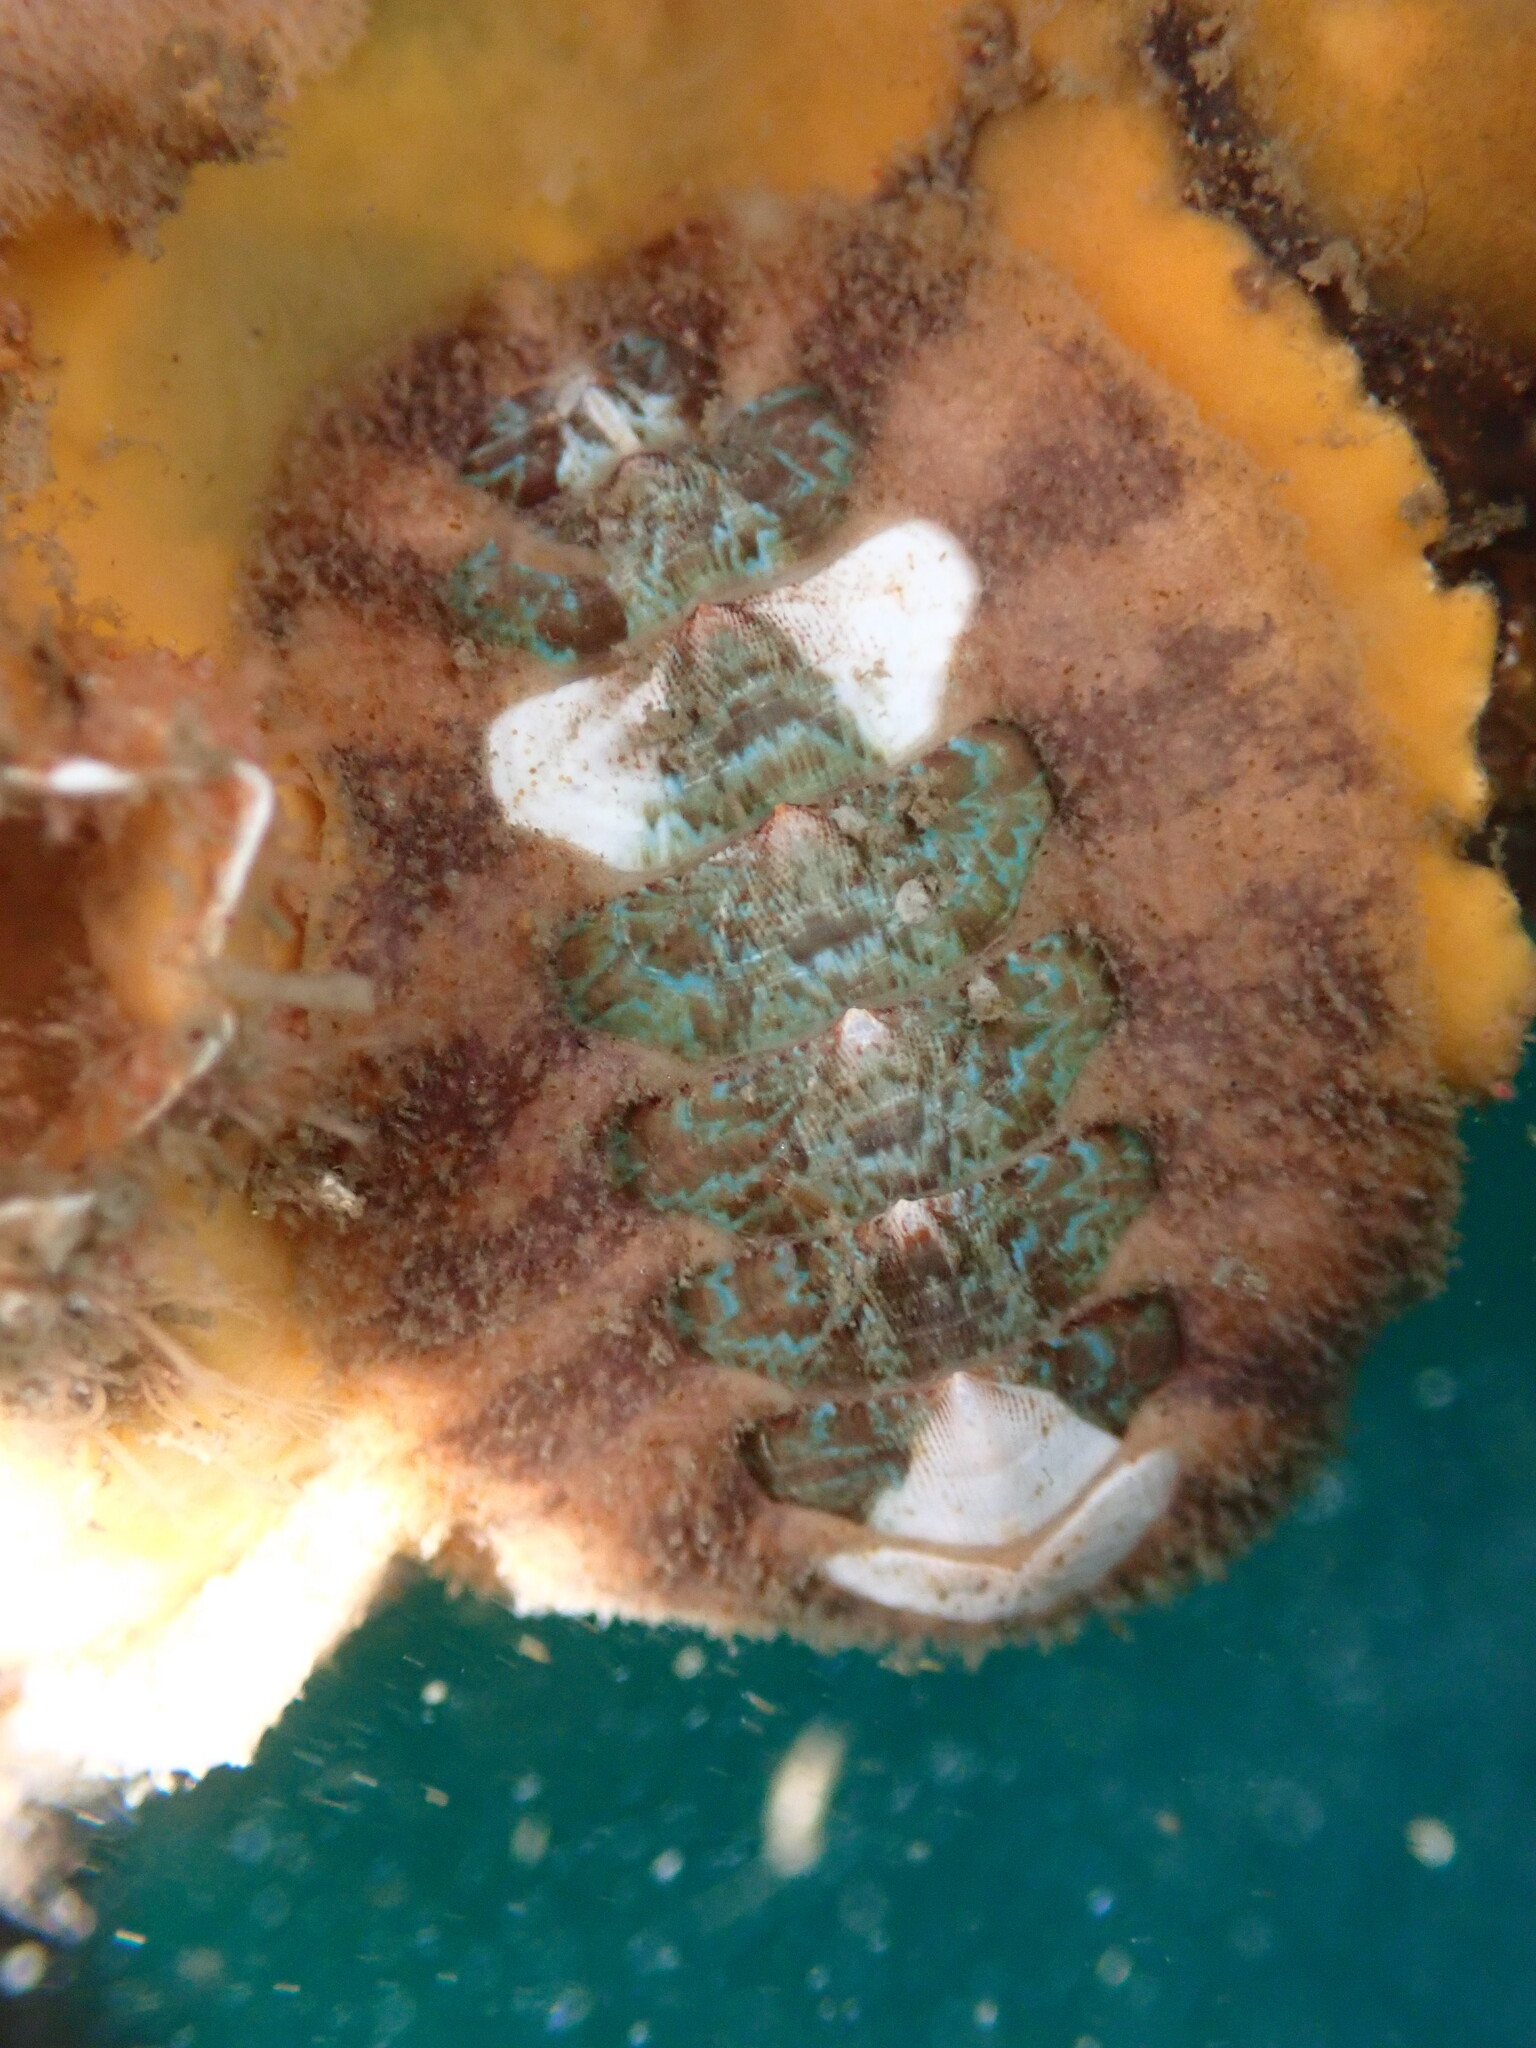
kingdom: Animalia
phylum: Mollusca
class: Polyplacophora
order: Chitonida
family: Mopaliidae
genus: Mopalia
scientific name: Mopalia swanii
